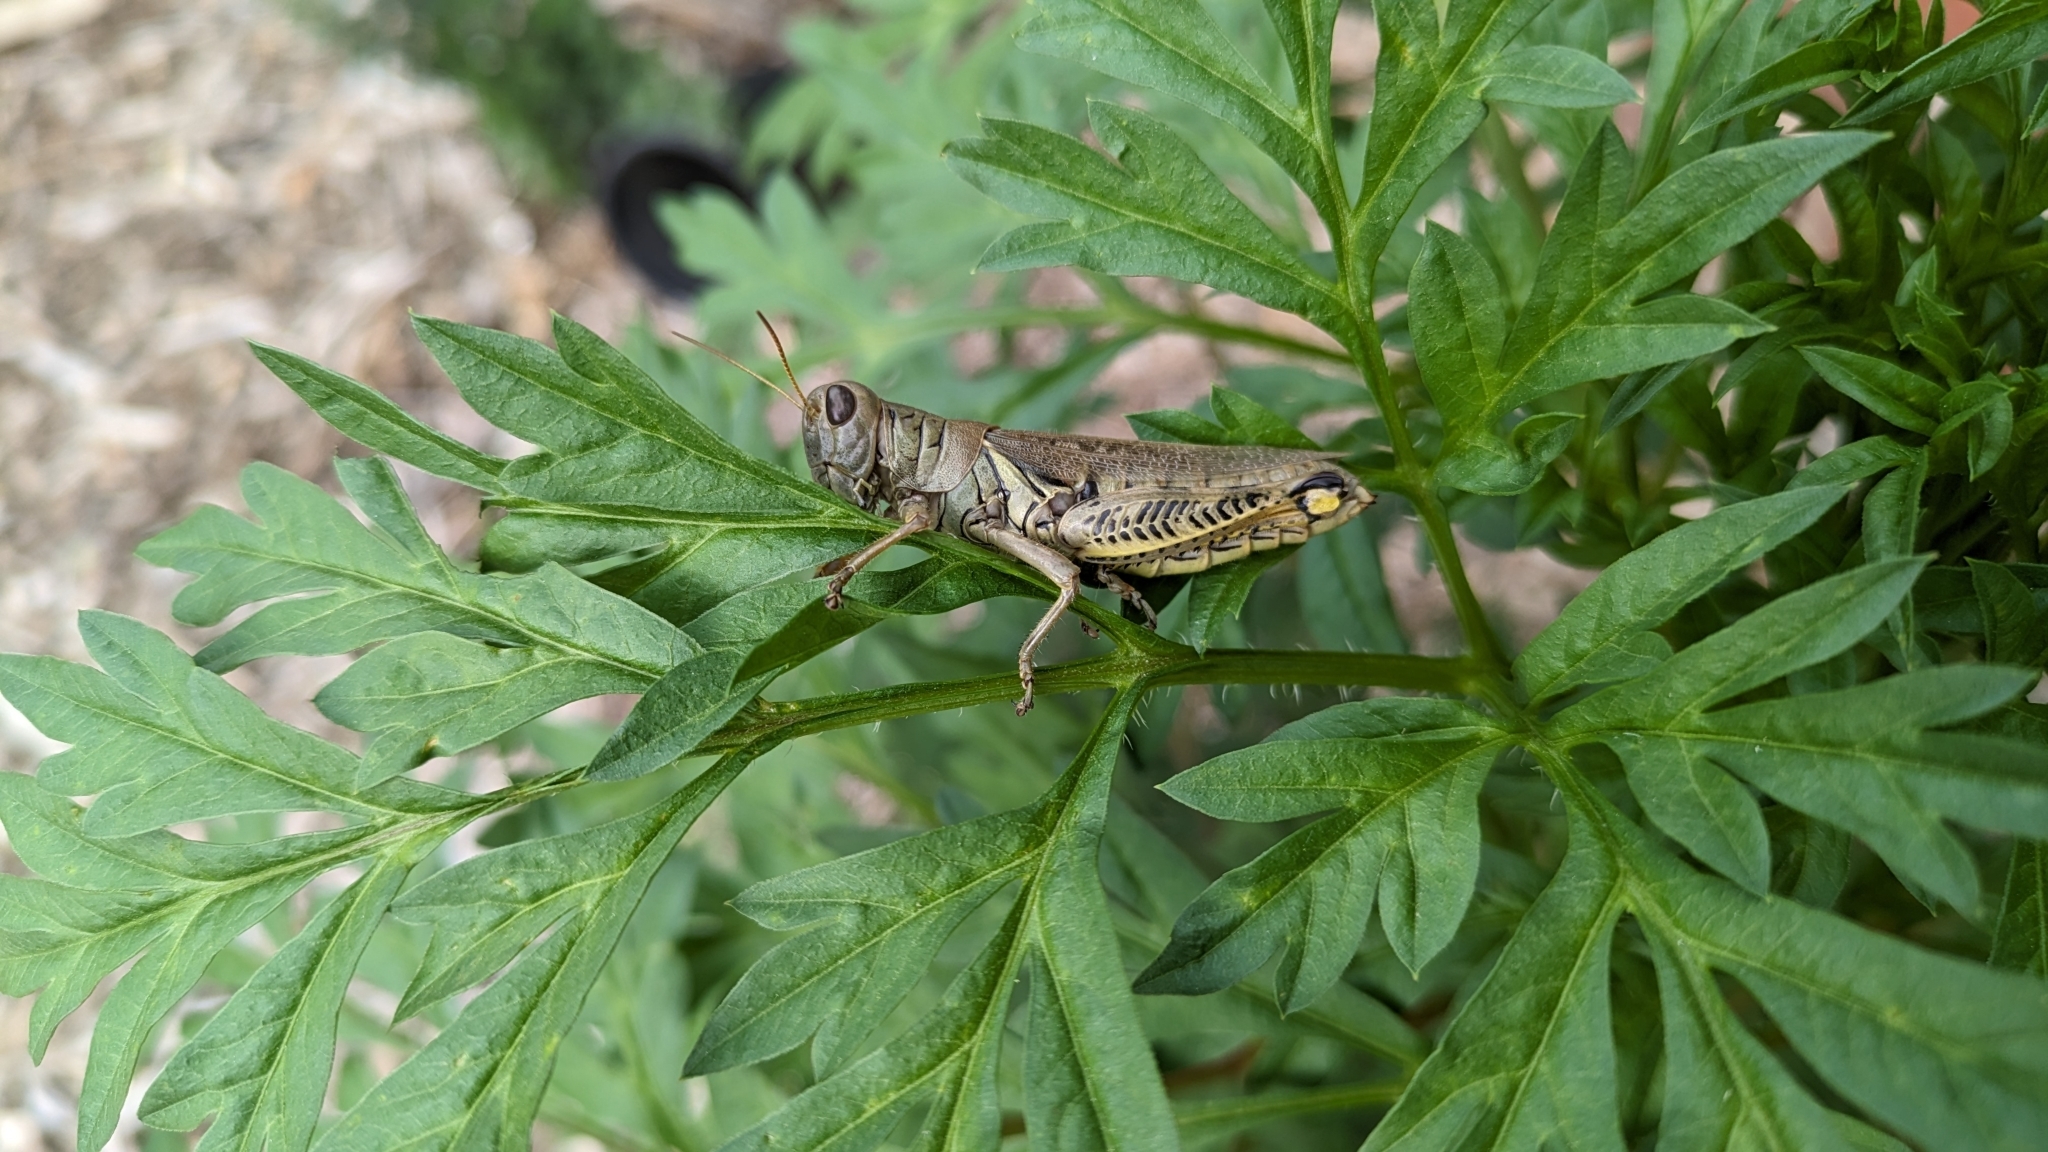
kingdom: Animalia
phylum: Arthropoda
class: Insecta
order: Orthoptera
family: Acrididae
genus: Melanoplus
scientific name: Melanoplus differentialis
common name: Differential grasshopper
